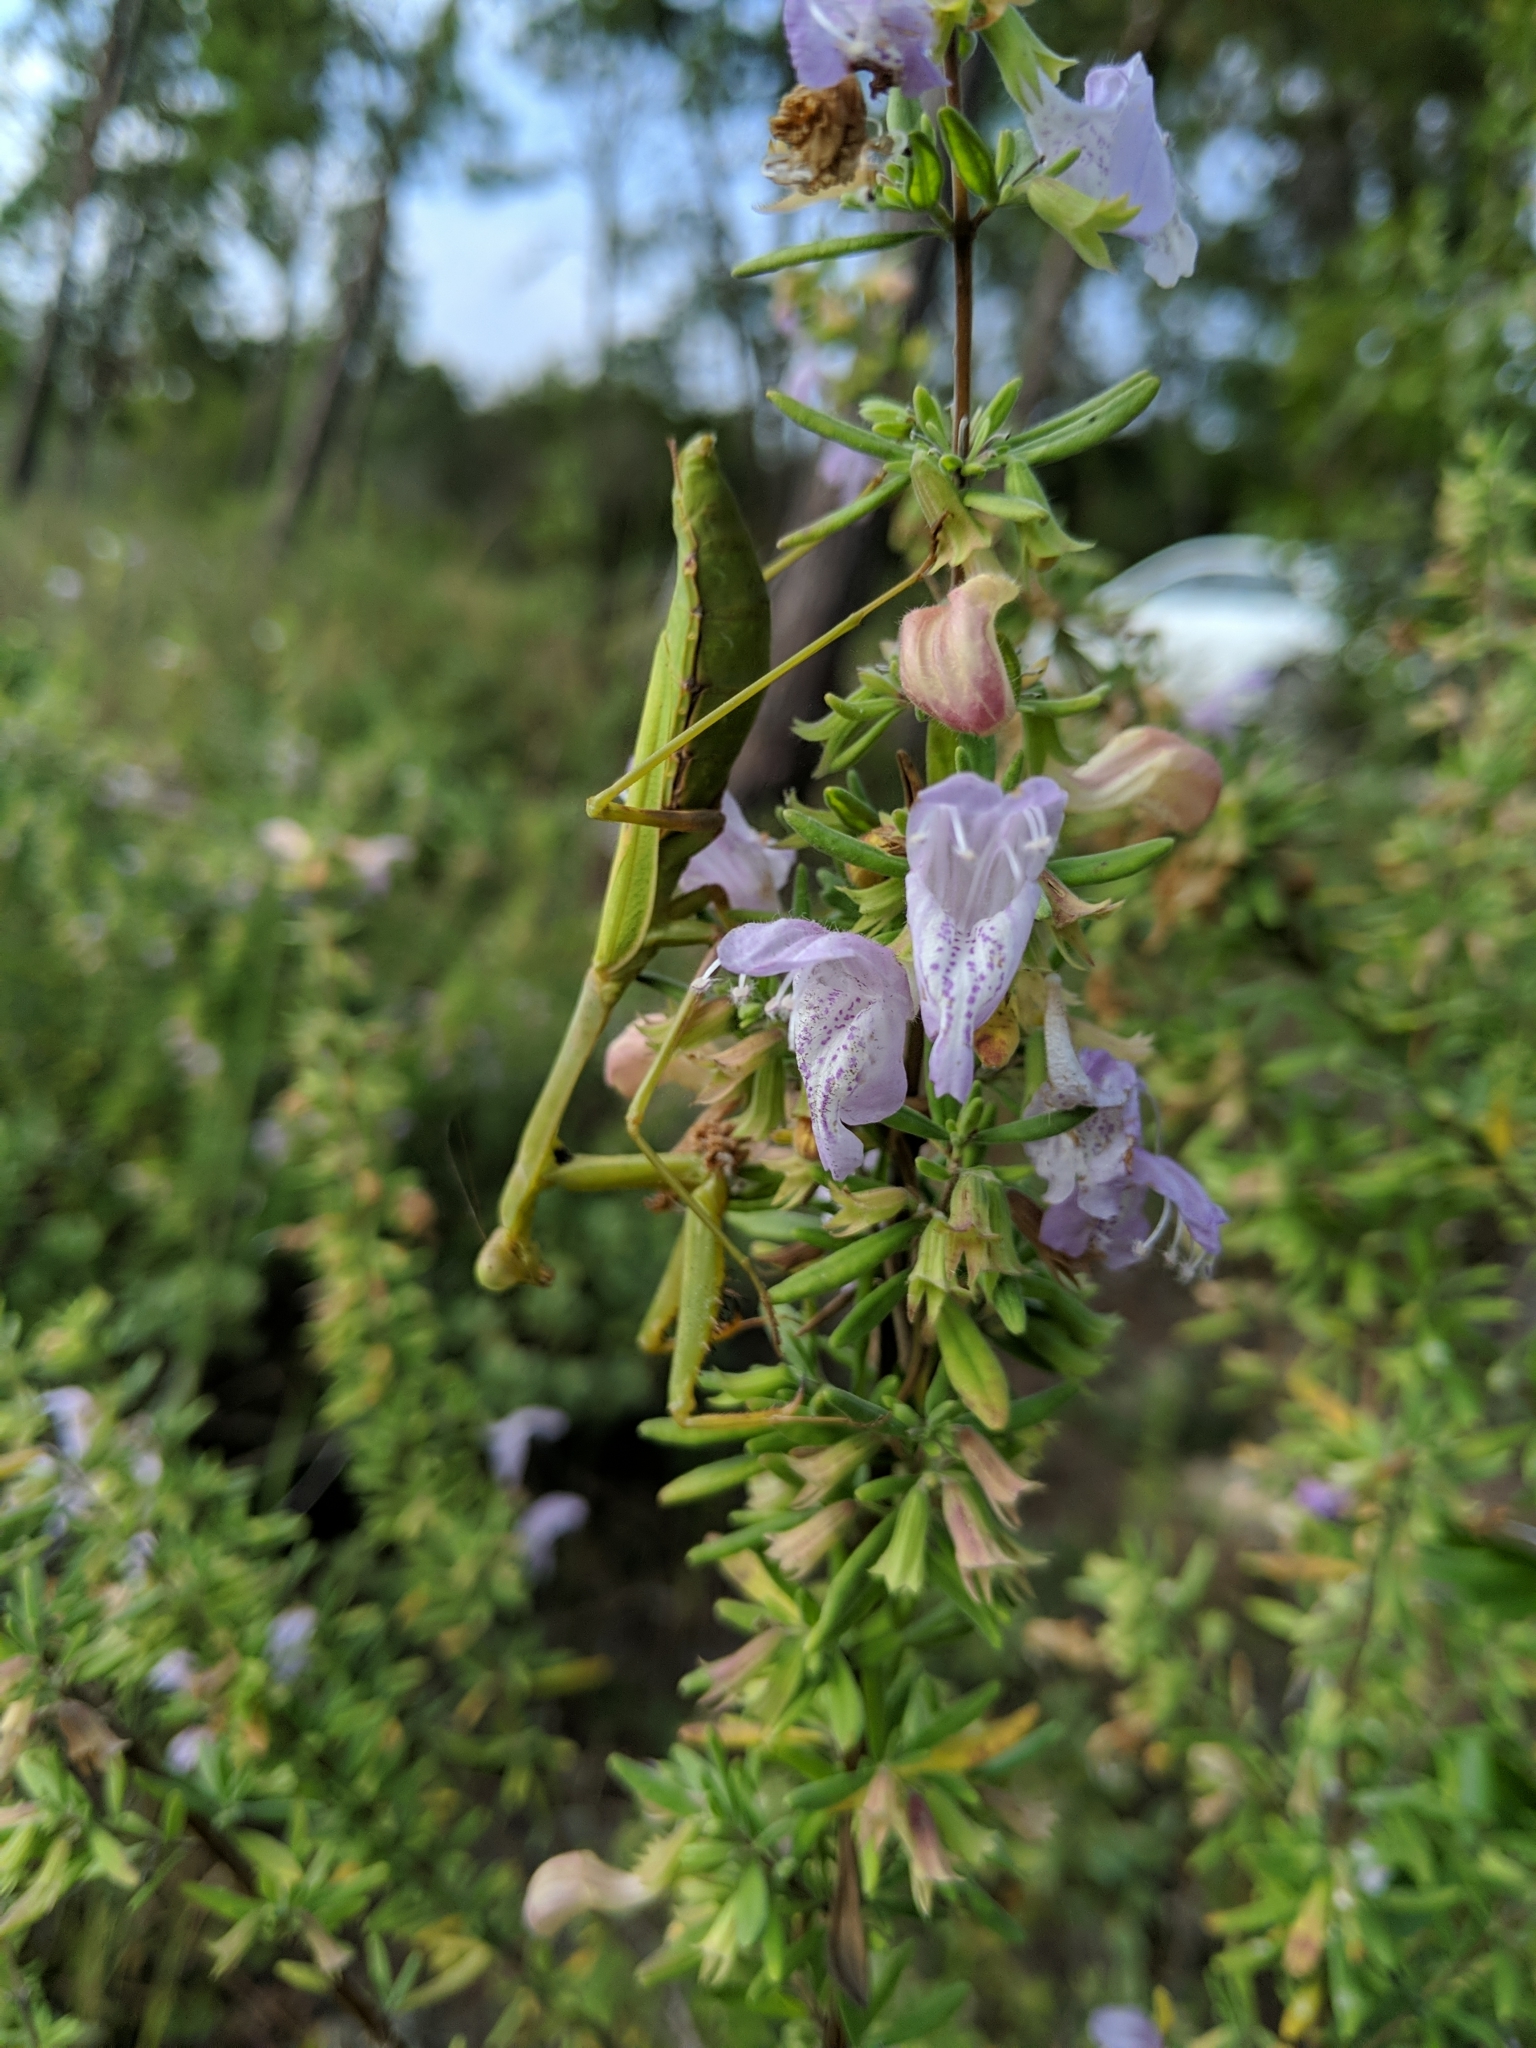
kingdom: Animalia
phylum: Arthropoda
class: Insecta
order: Mantodea
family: Mantidae
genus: Stagmomantis
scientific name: Stagmomantis carolina
